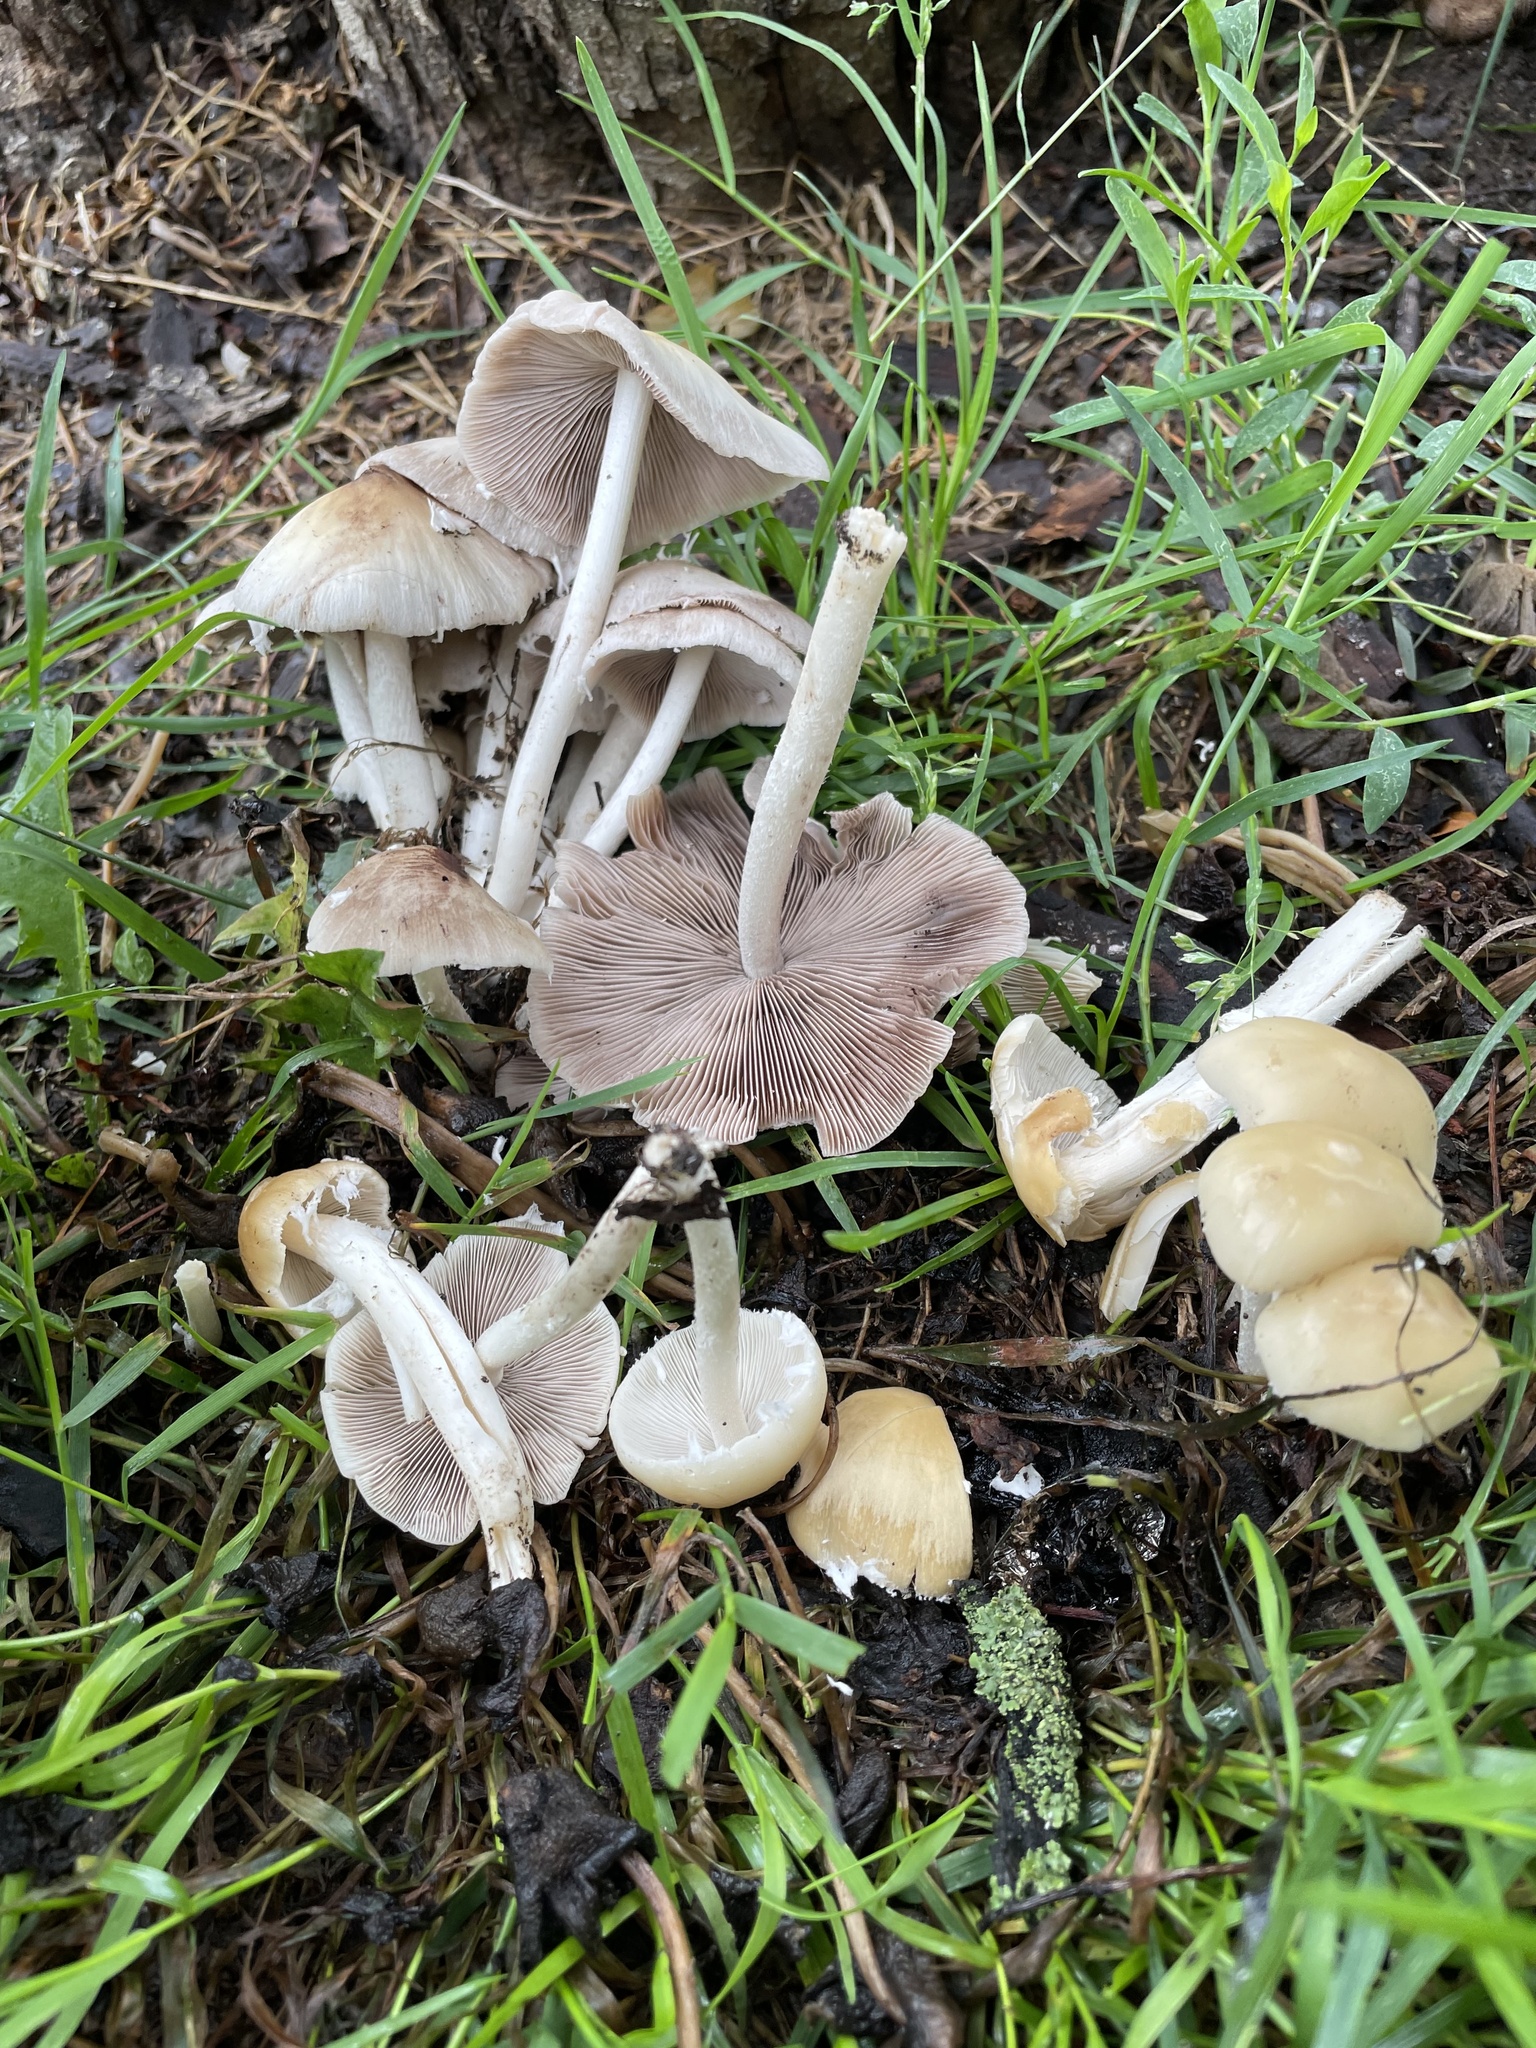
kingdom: Fungi
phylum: Basidiomycota
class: Agaricomycetes
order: Agaricales
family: Psathyrellaceae
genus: Candolleomyces
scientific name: Candolleomyces candolleanus
